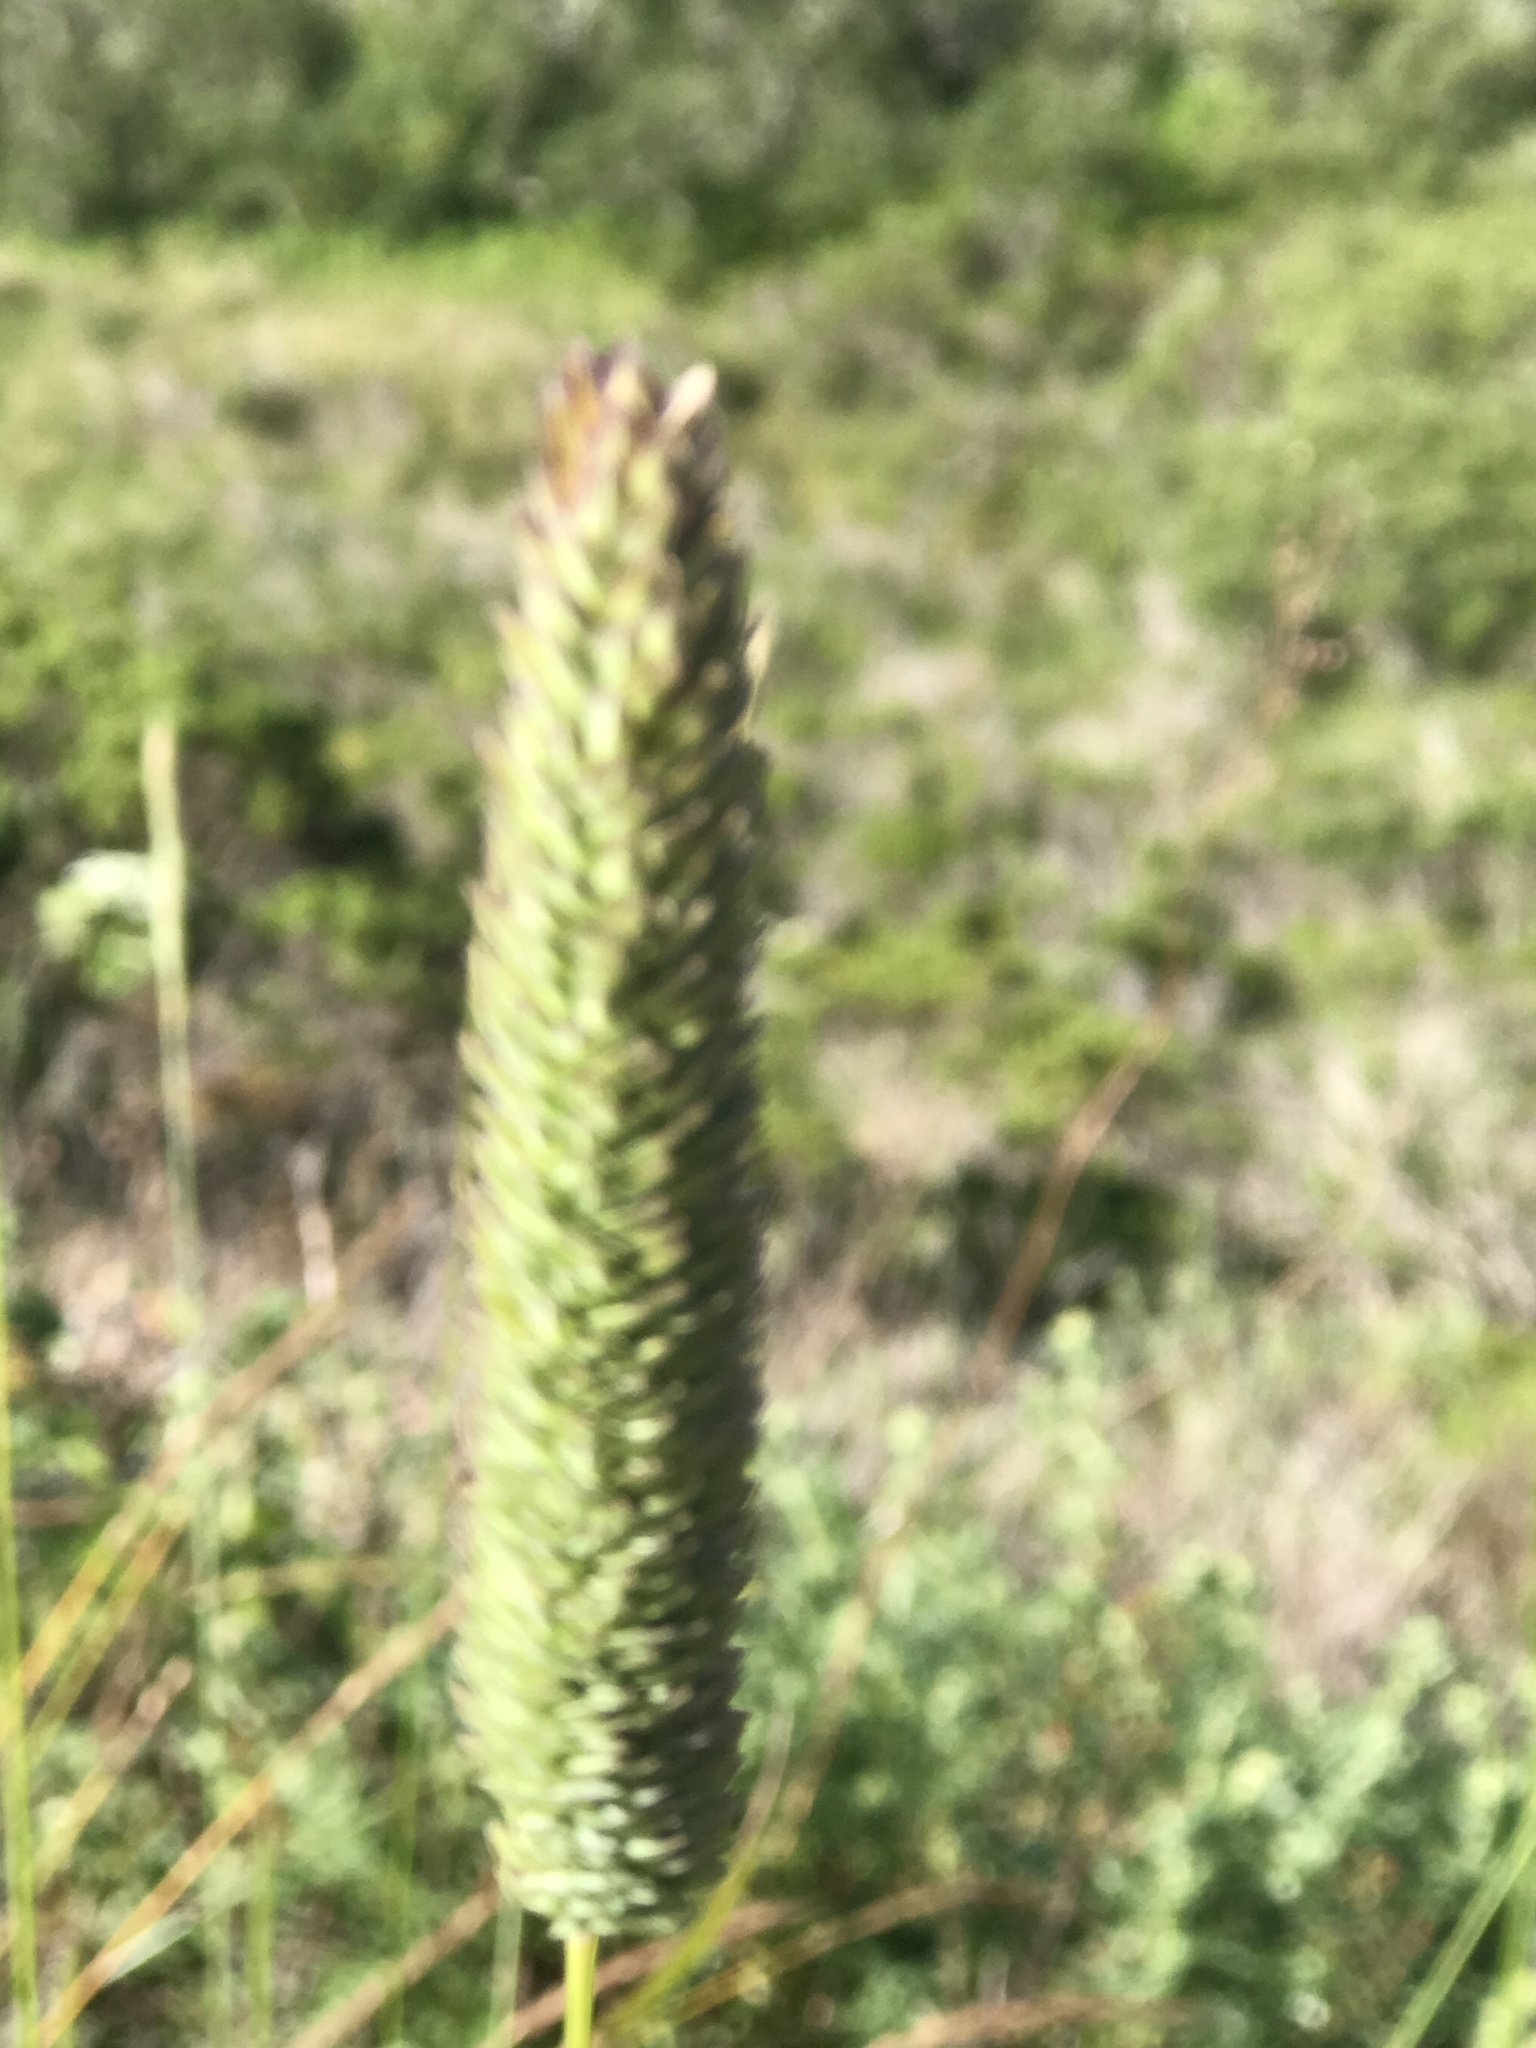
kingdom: Plantae
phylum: Tracheophyta
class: Liliopsida
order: Poales
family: Poaceae
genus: Phalaris
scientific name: Phalaris aquatica
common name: Bulbous canary-grass
